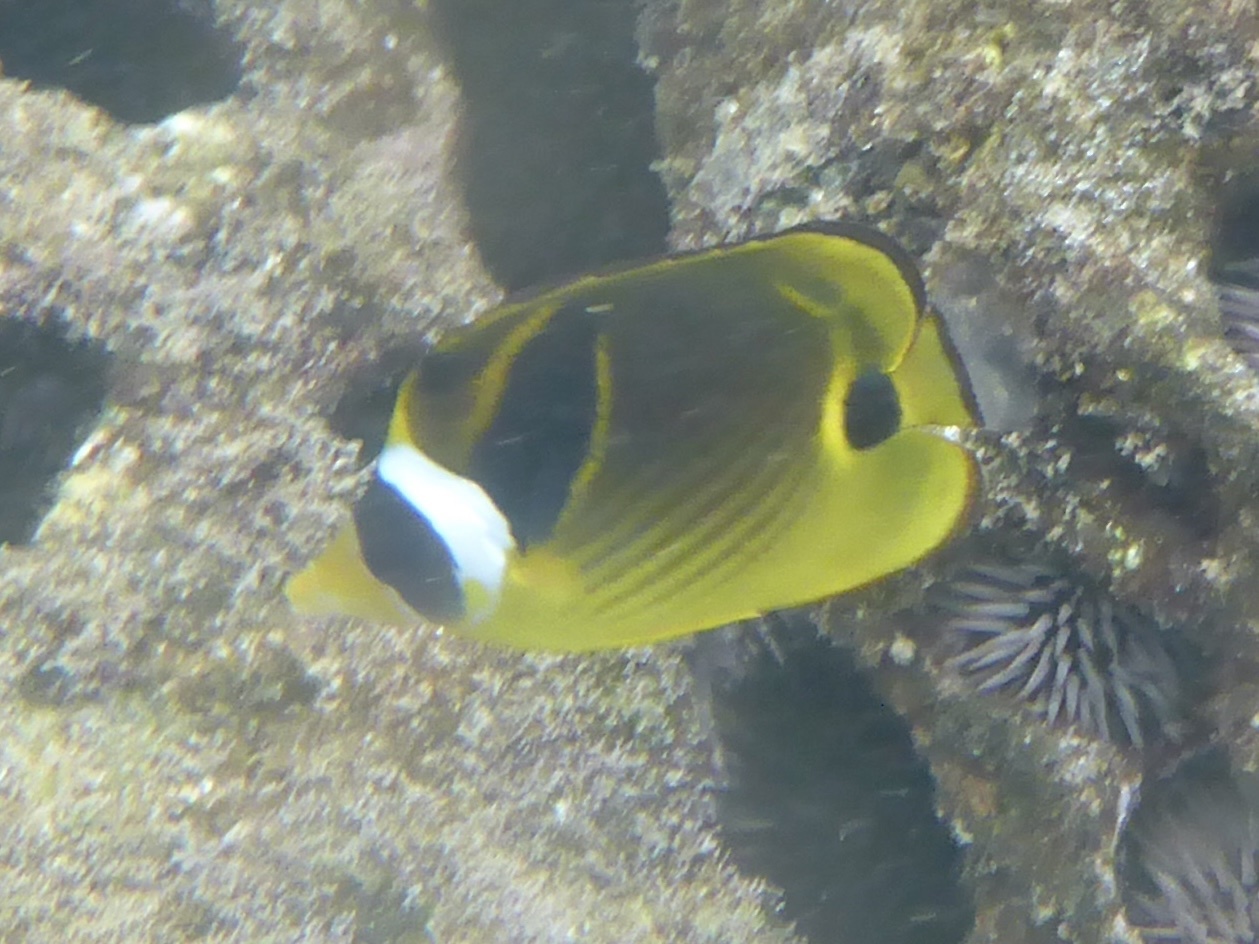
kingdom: Animalia
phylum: Chordata
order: Perciformes
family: Chaetodontidae
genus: Chaetodon
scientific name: Chaetodon lunula
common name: Raccoon butterflyfish
